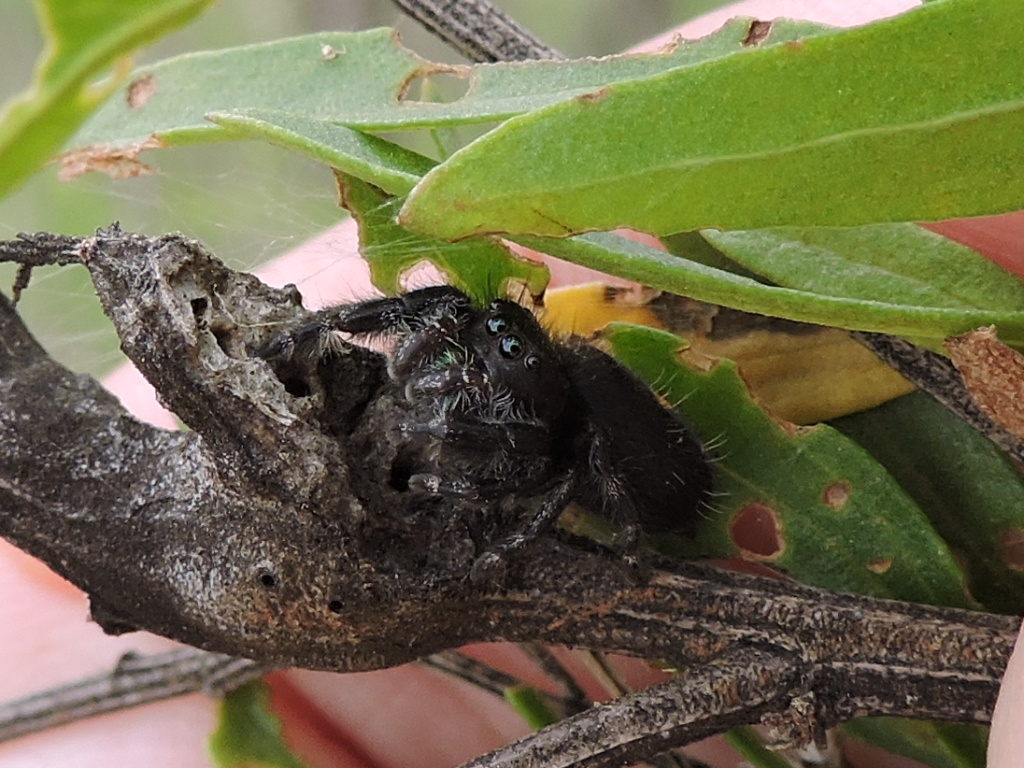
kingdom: Animalia
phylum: Arthropoda
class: Arachnida
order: Araneae
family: Salticidae
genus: Phidippus
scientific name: Phidippus audax
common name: Bold jumper
